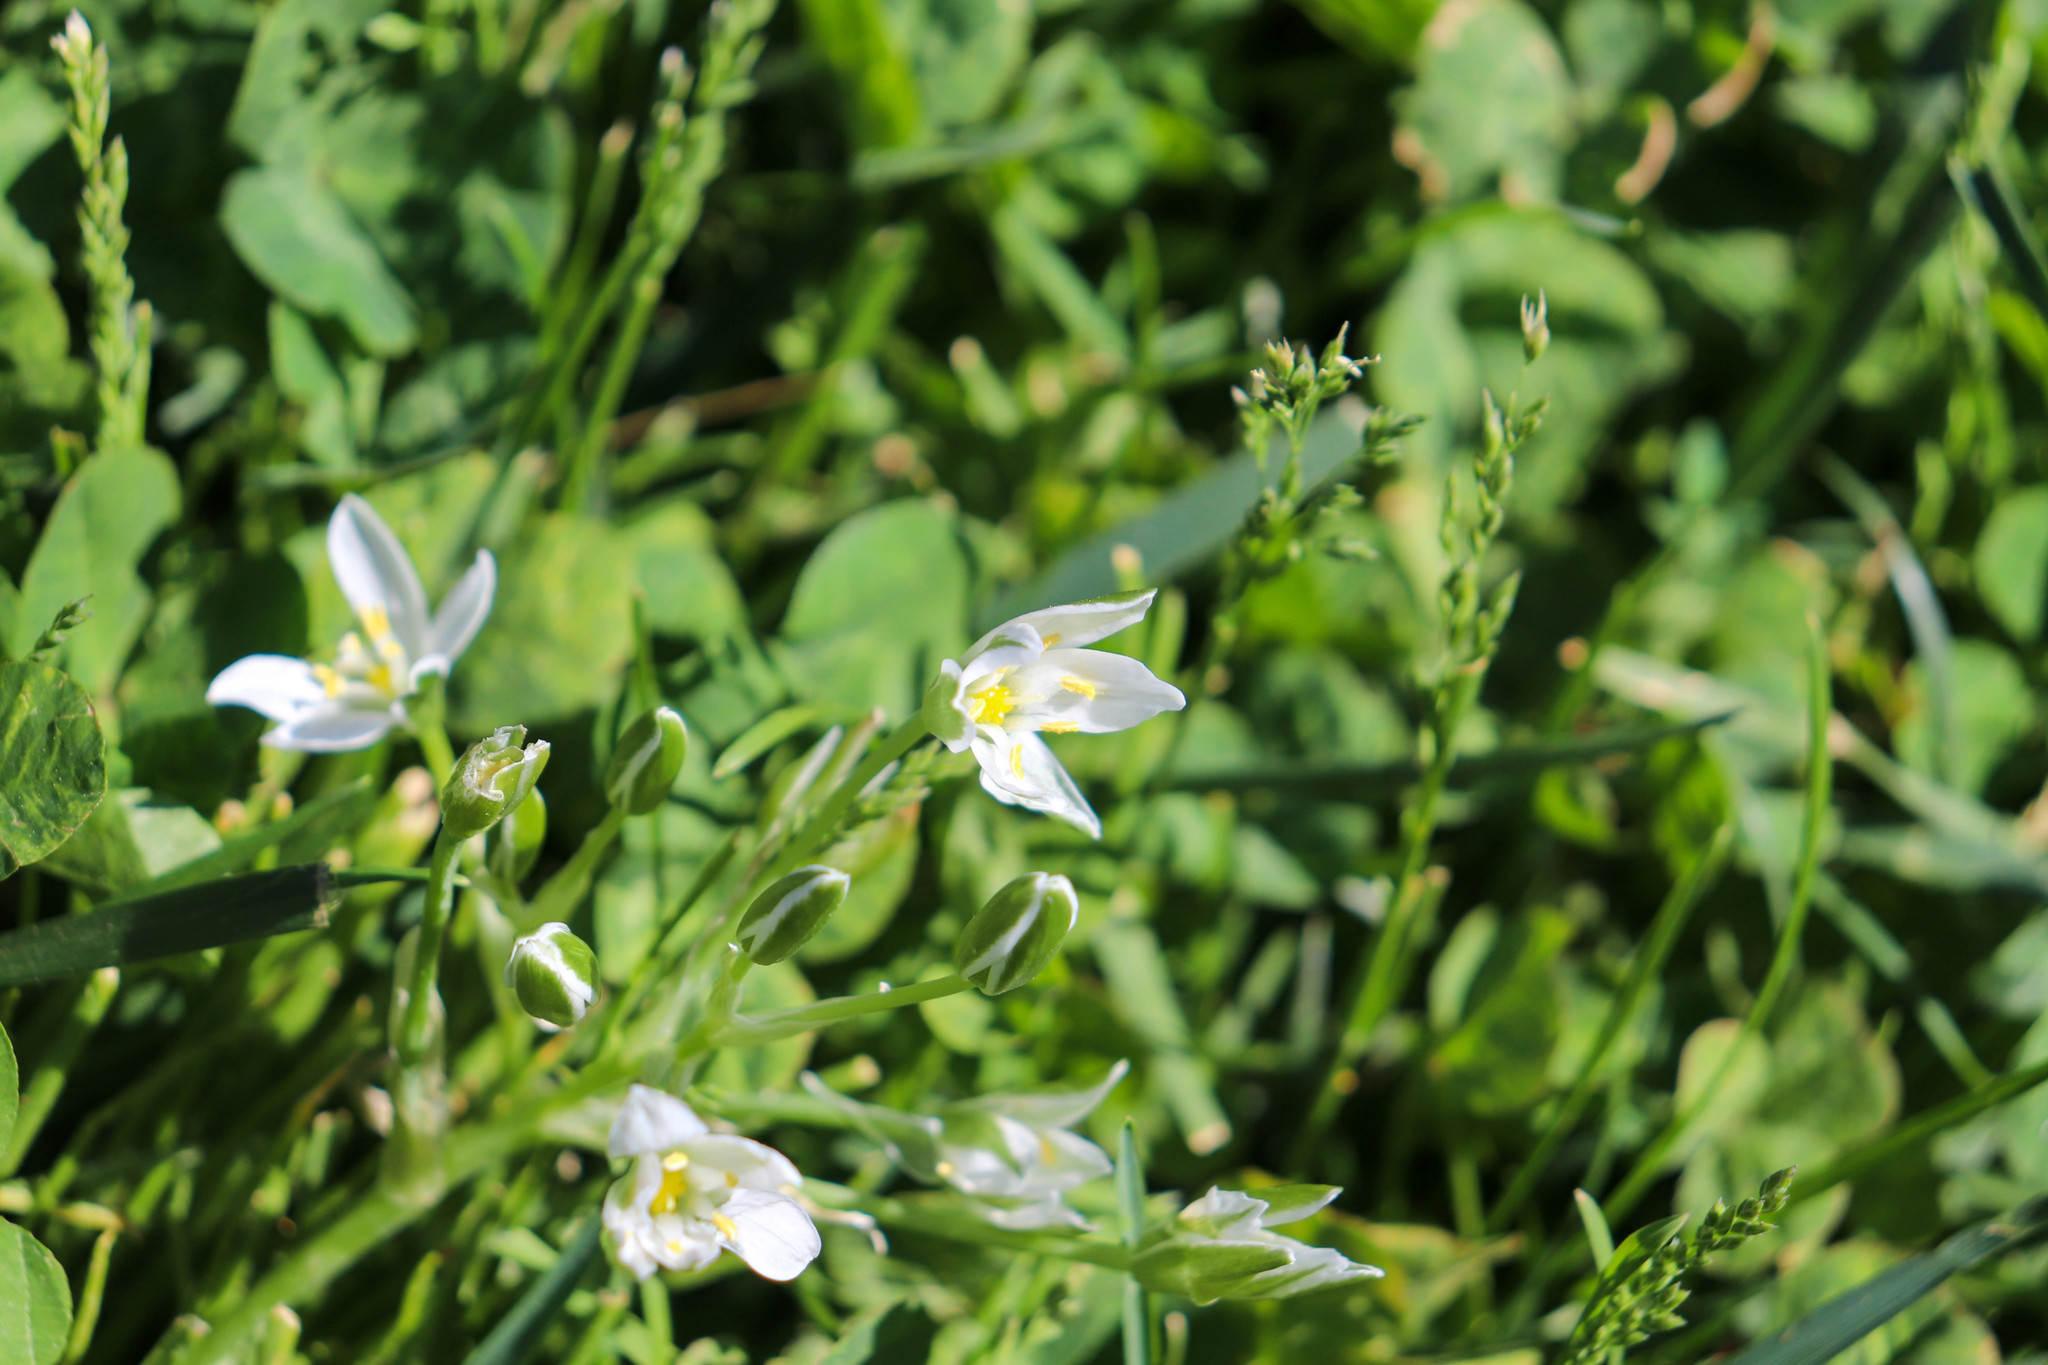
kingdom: Plantae
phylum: Tracheophyta
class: Liliopsida
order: Asparagales
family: Asparagaceae
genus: Ornithogalum
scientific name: Ornithogalum umbellatum
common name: Garden star-of-bethlehem
